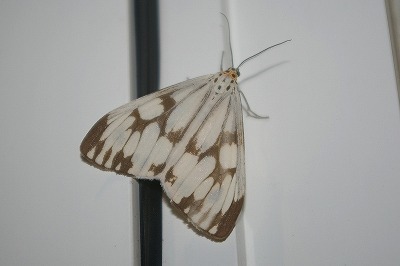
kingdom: Animalia
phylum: Arthropoda
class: Insecta
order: Lepidoptera
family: Erebidae
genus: Nyctemera
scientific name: Nyctemera adversata
